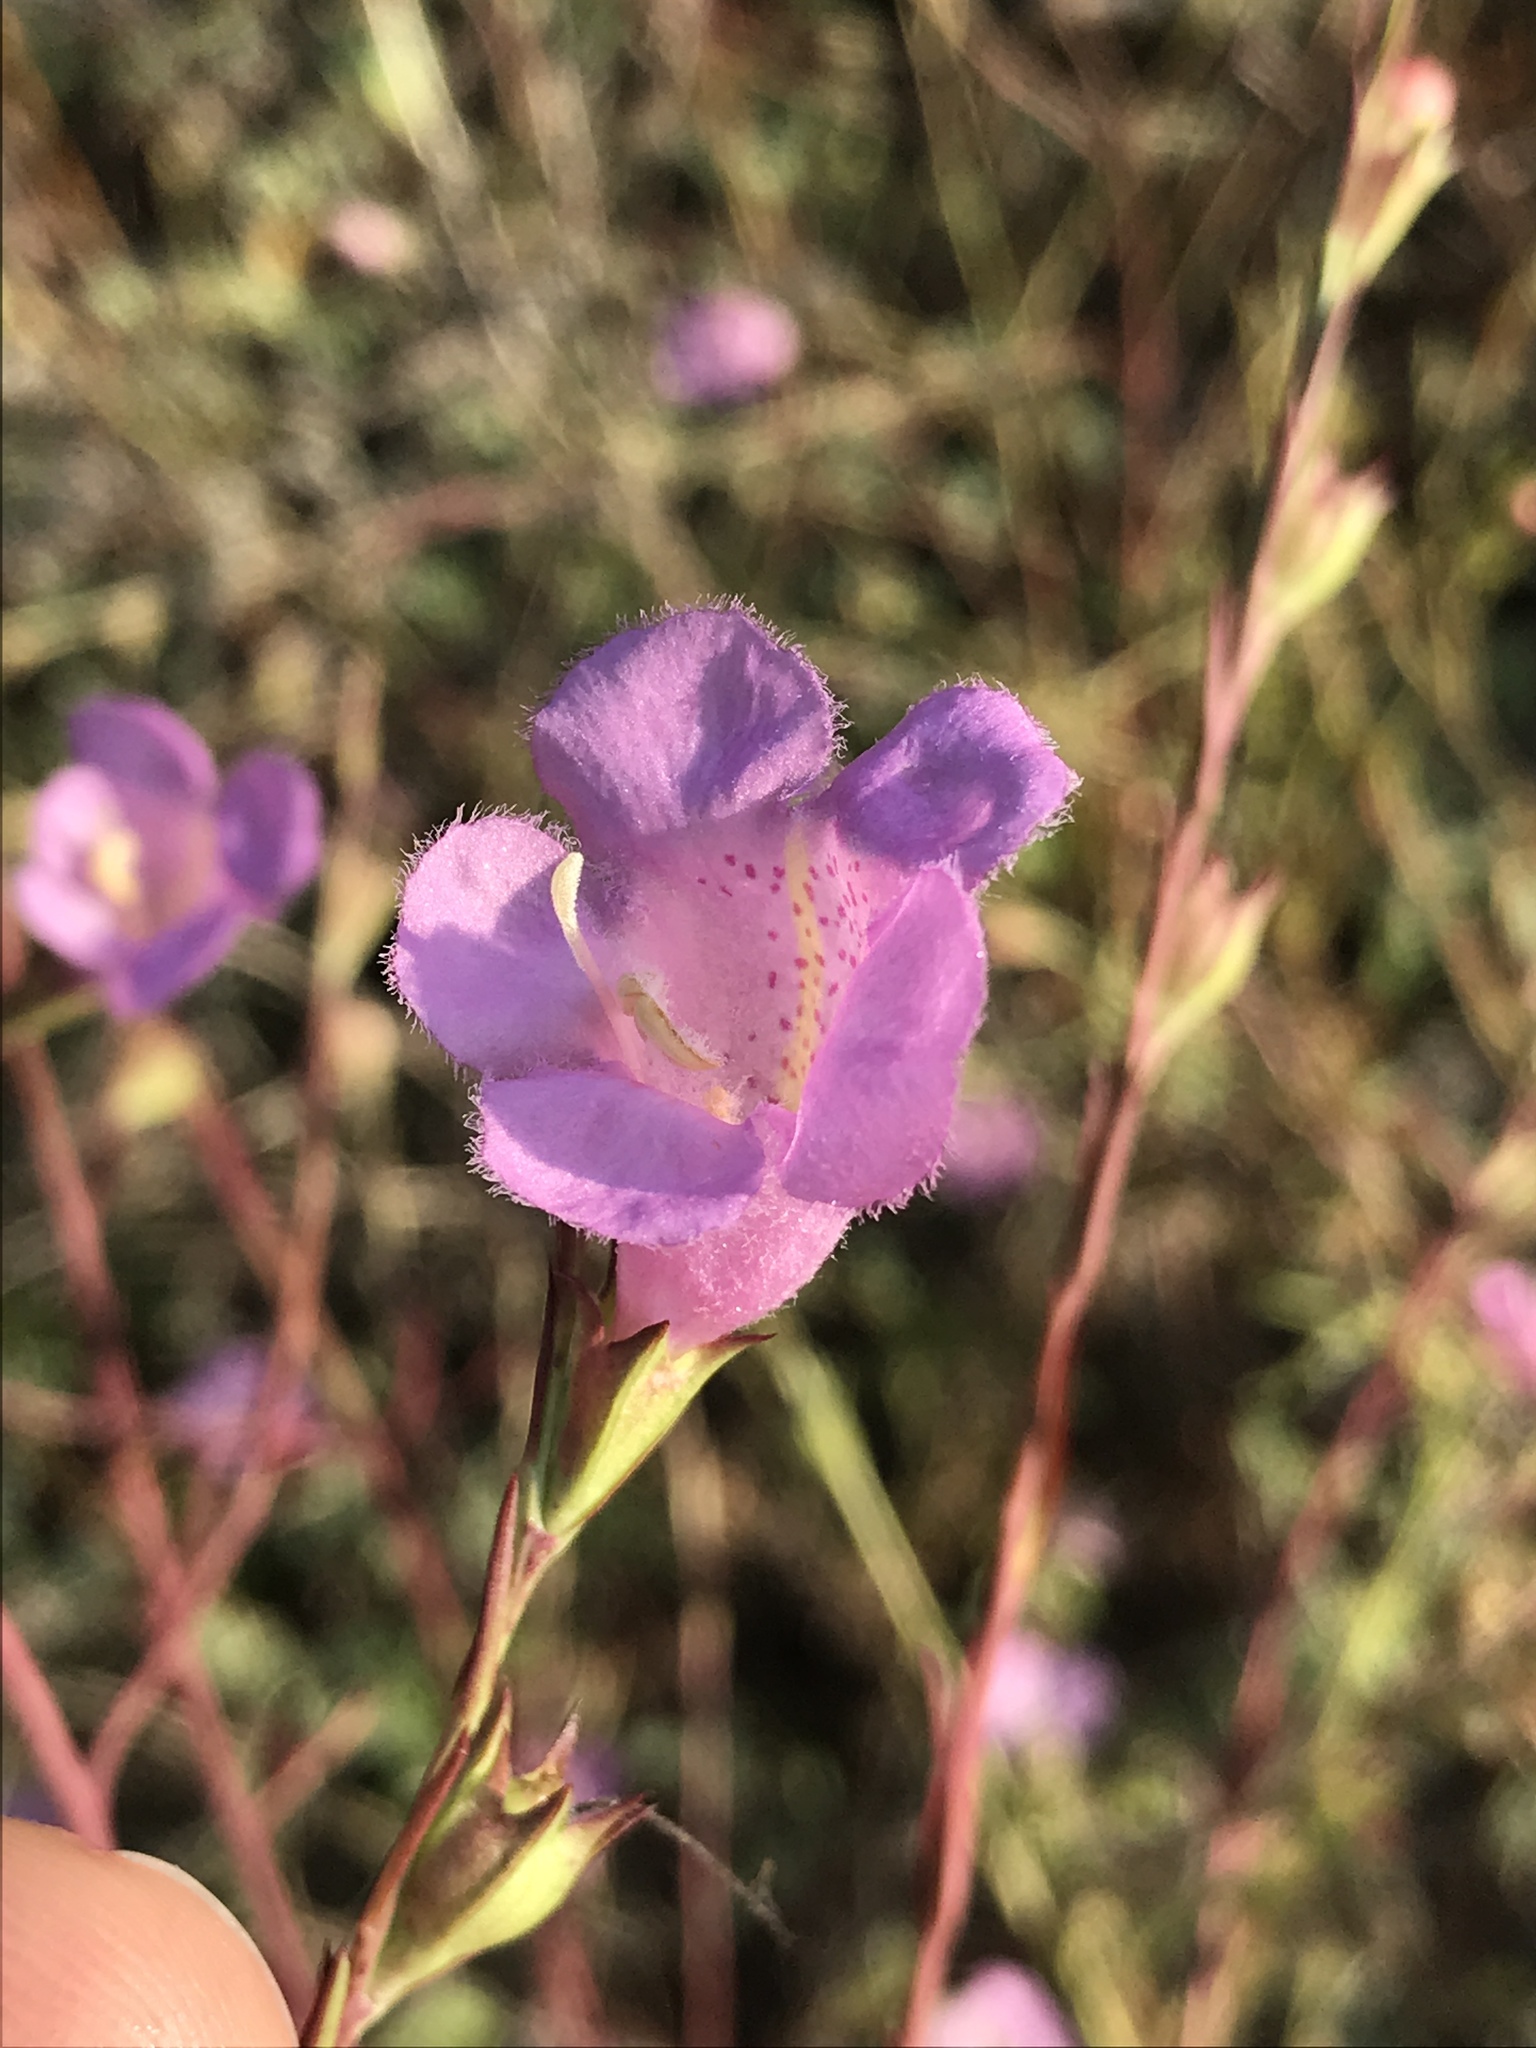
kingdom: Plantae
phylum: Tracheophyta
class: Magnoliopsida
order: Lamiales
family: Orobanchaceae
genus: Agalinis
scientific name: Agalinis heterophylla
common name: Prairie agalinis
